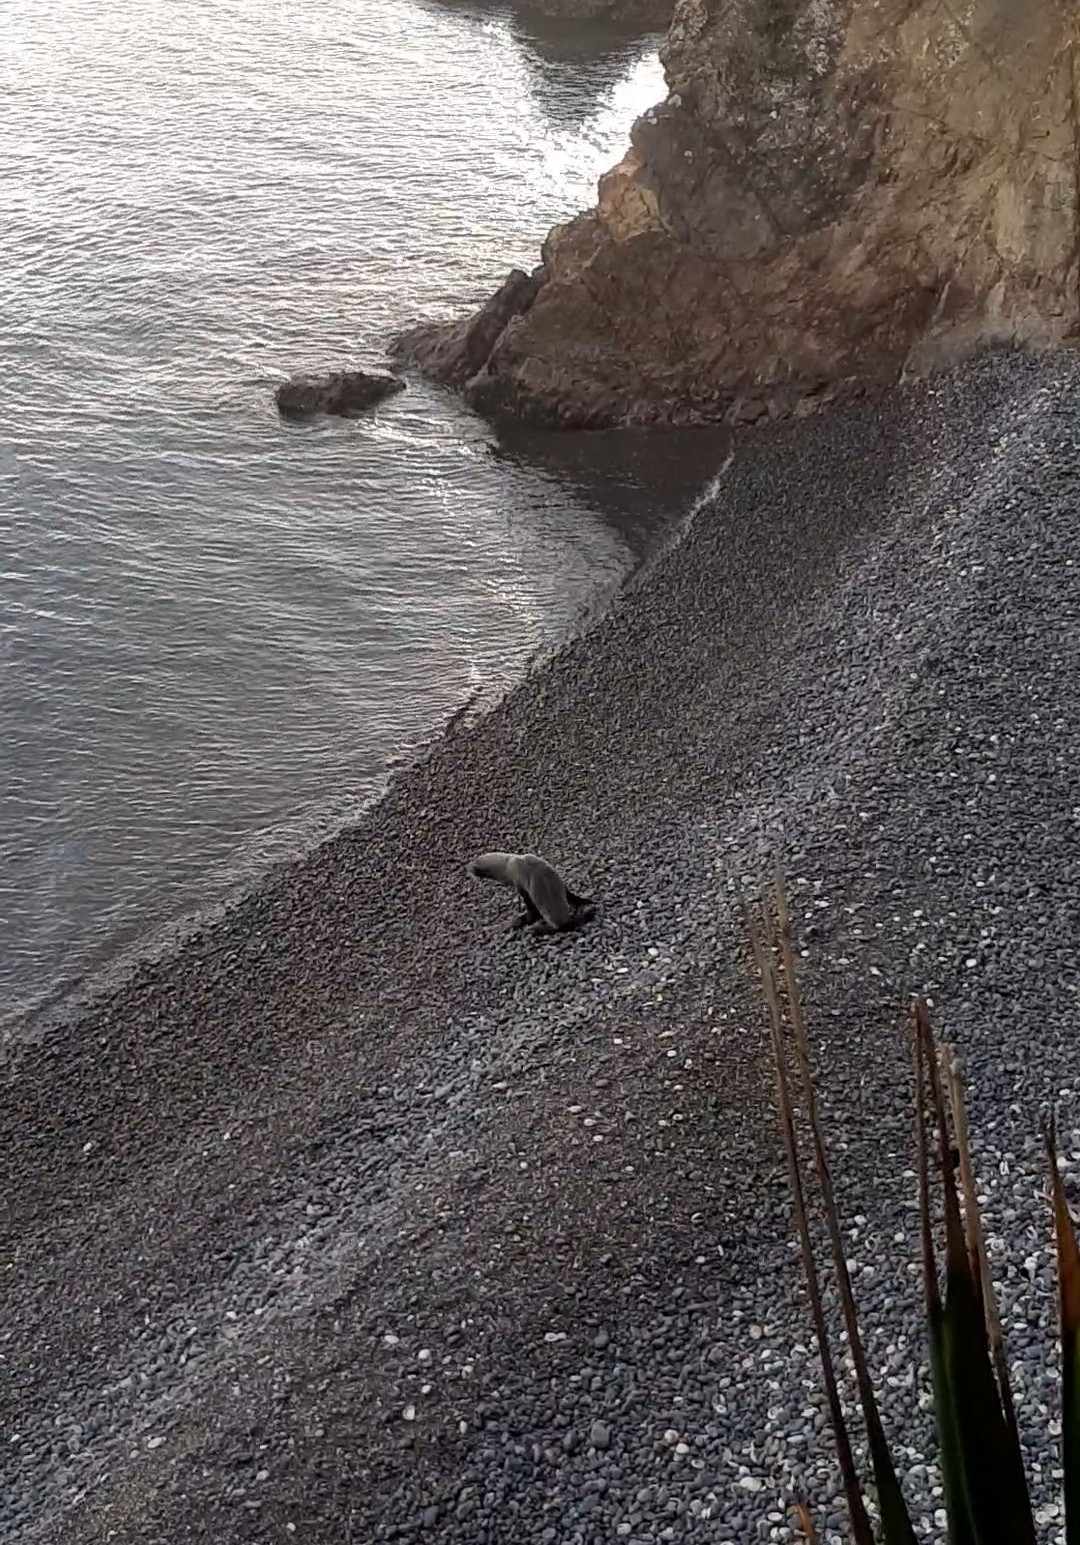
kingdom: Animalia
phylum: Chordata
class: Mammalia
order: Carnivora
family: Otariidae
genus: Arctocephalus
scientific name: Arctocephalus forsteri
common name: New zealand fur seal
